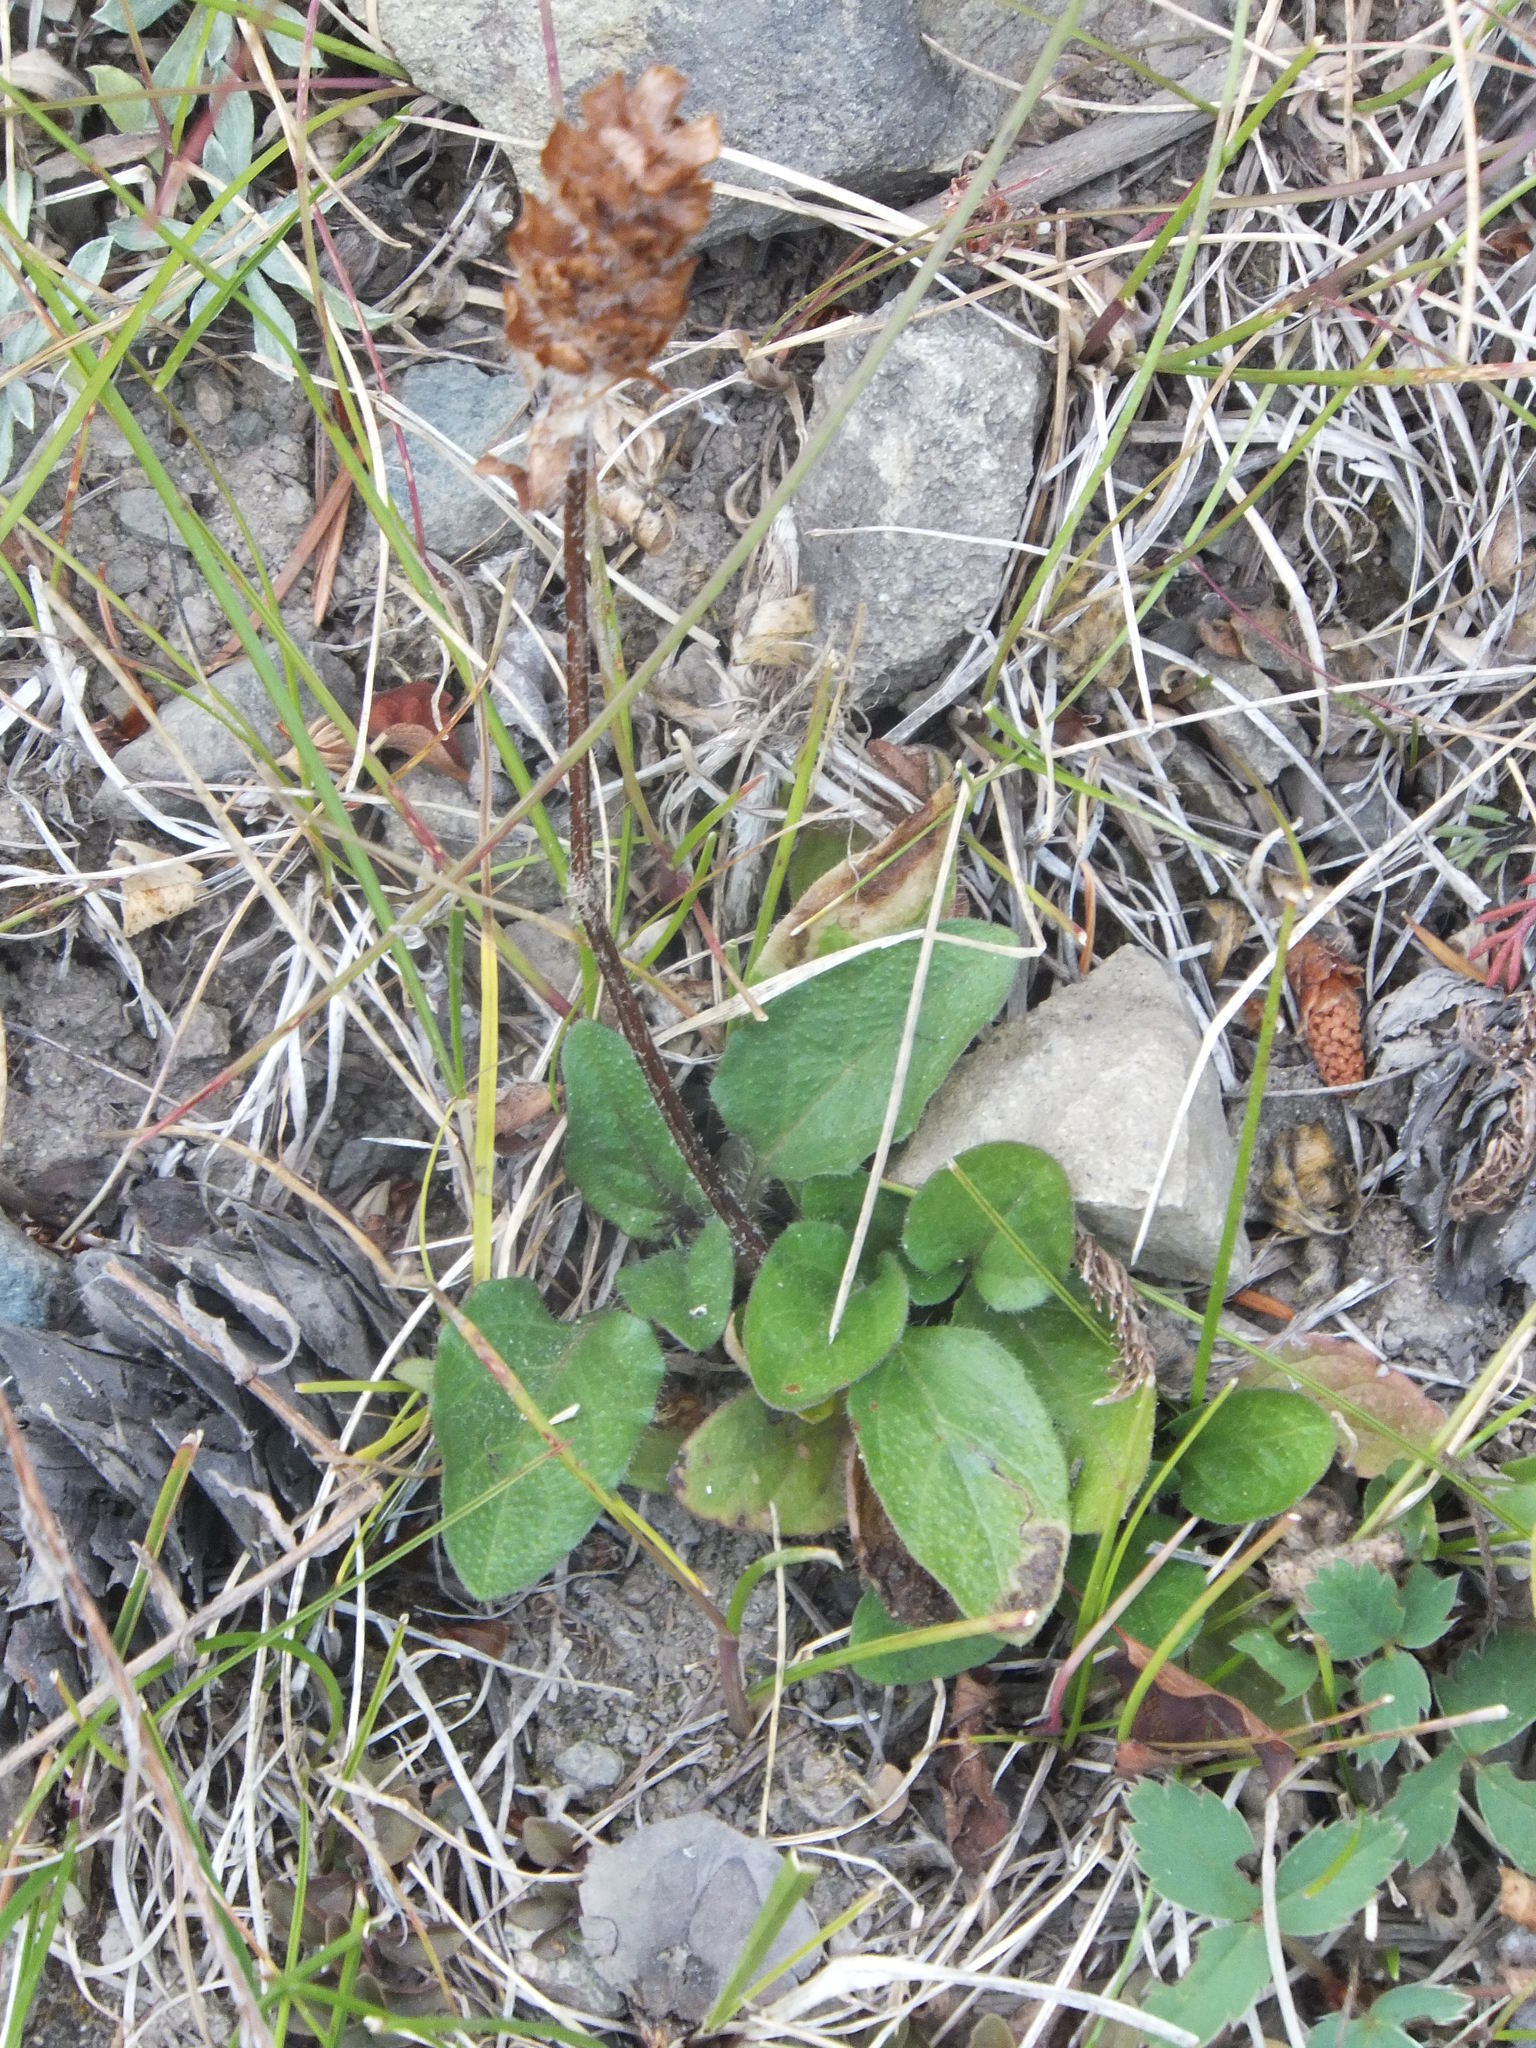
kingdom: Plantae
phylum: Tracheophyta
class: Magnoliopsida
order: Lamiales
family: Lamiaceae
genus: Prunella
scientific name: Prunella vulgaris
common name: Heal-all
